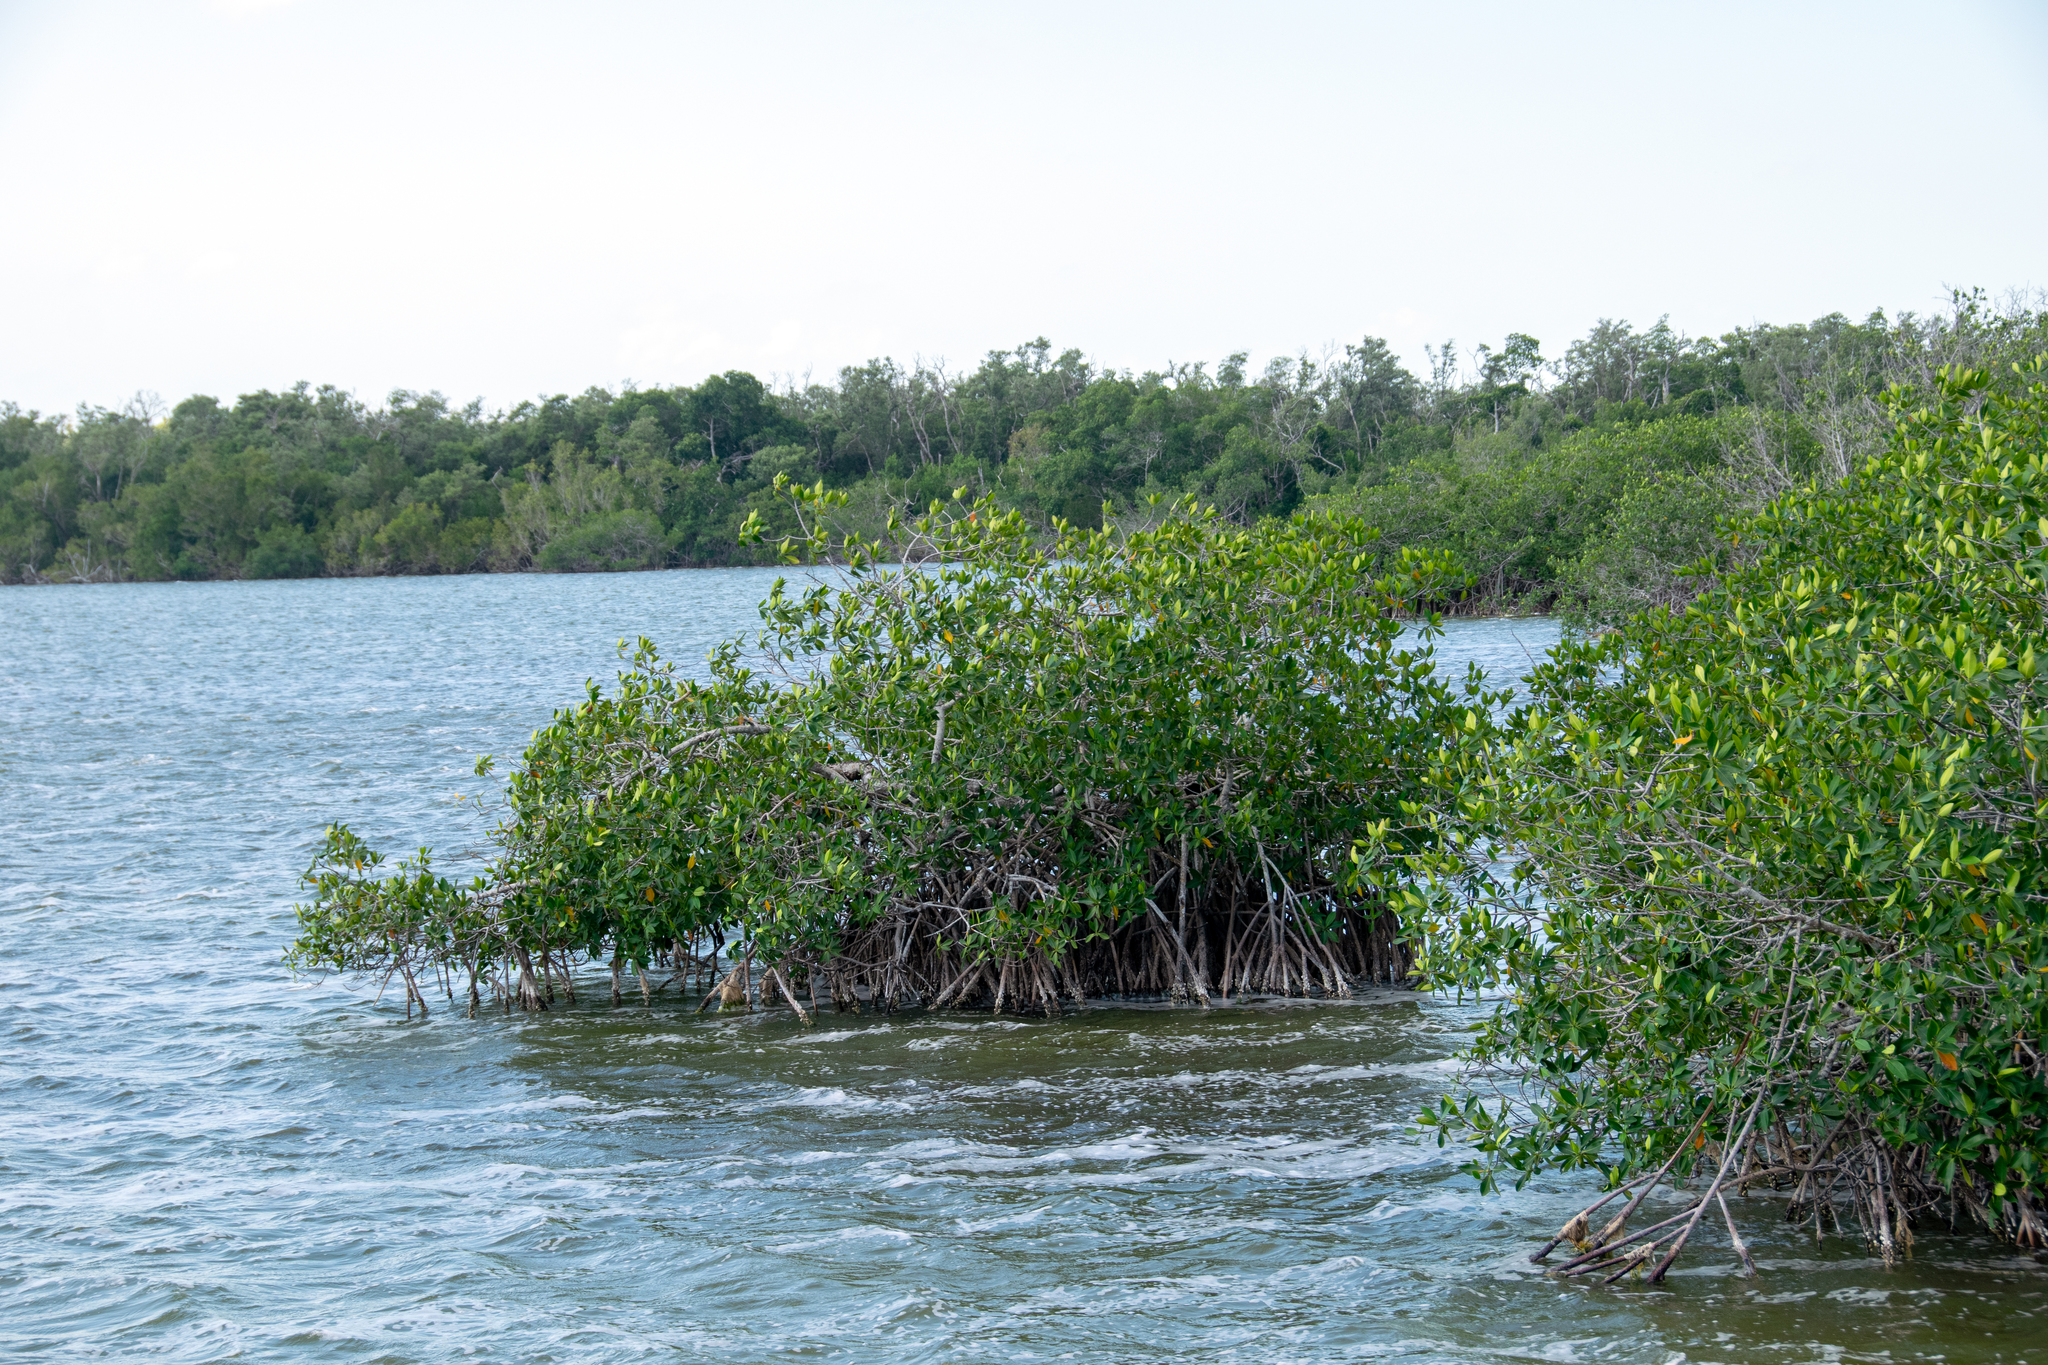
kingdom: Plantae
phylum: Tracheophyta
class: Magnoliopsida
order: Malpighiales
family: Rhizophoraceae
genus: Rhizophora
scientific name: Rhizophora mangle
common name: Red mangrove
